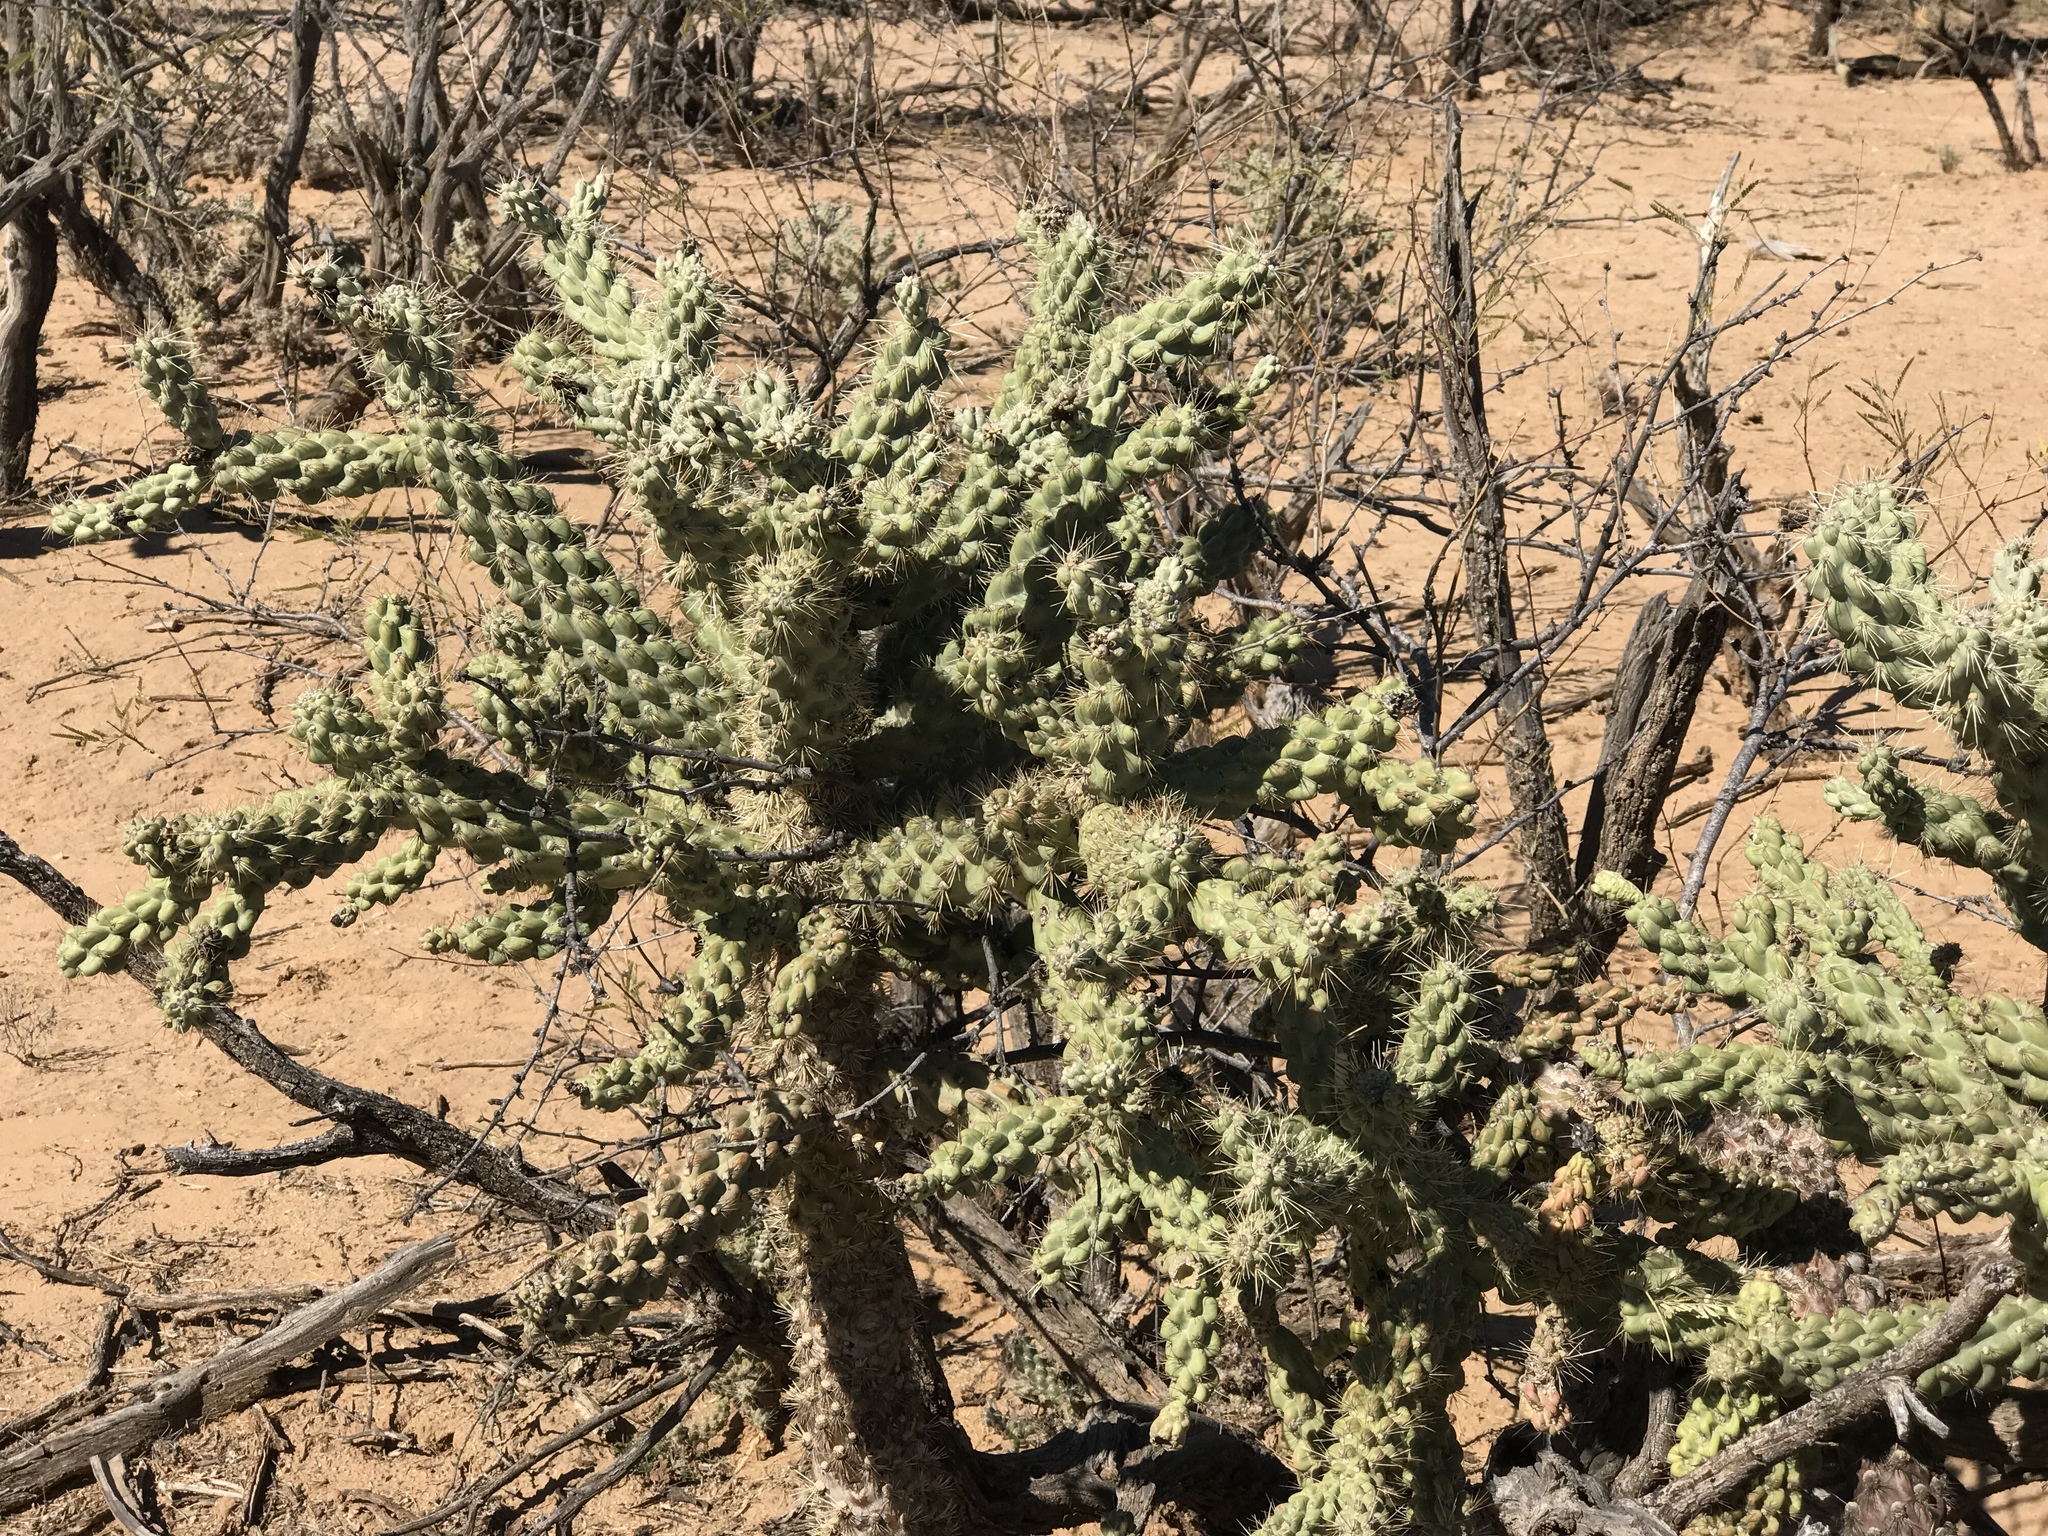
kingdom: Plantae
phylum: Tracheophyta
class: Magnoliopsida
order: Caryophyllales
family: Cactaceae
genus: Cylindropuntia
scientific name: Cylindropuntia fulgida
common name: Jumping cholla
